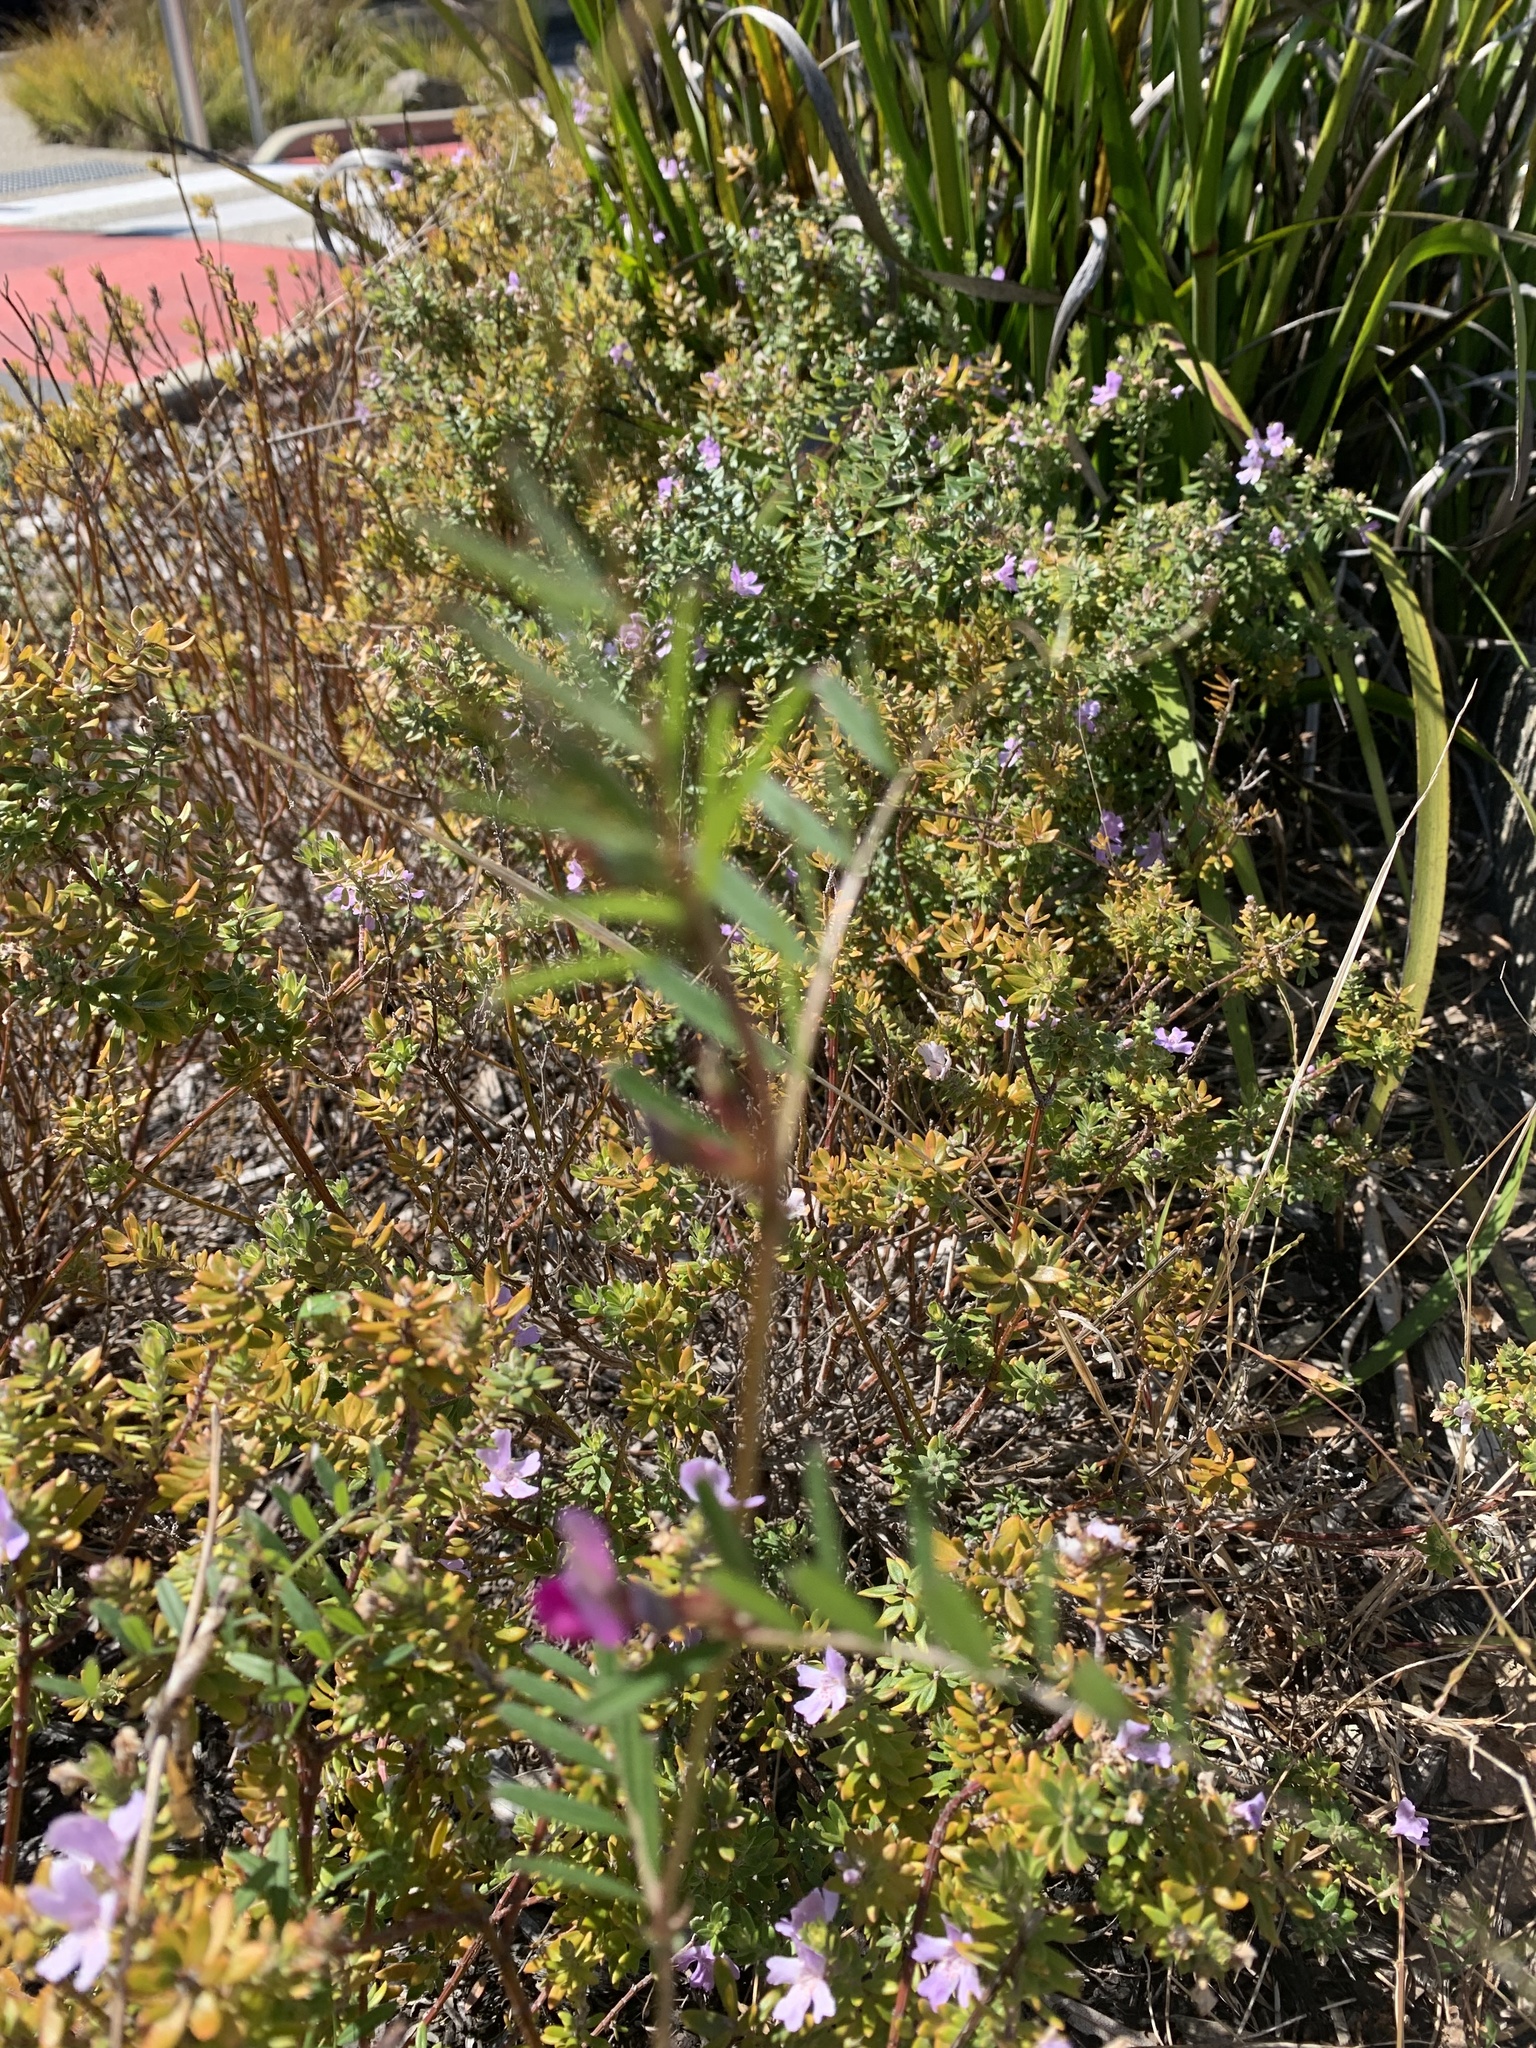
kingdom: Plantae
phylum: Tracheophyta
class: Magnoliopsida
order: Fabales
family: Fabaceae
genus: Vicia
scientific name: Vicia sativa
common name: Garden vetch
